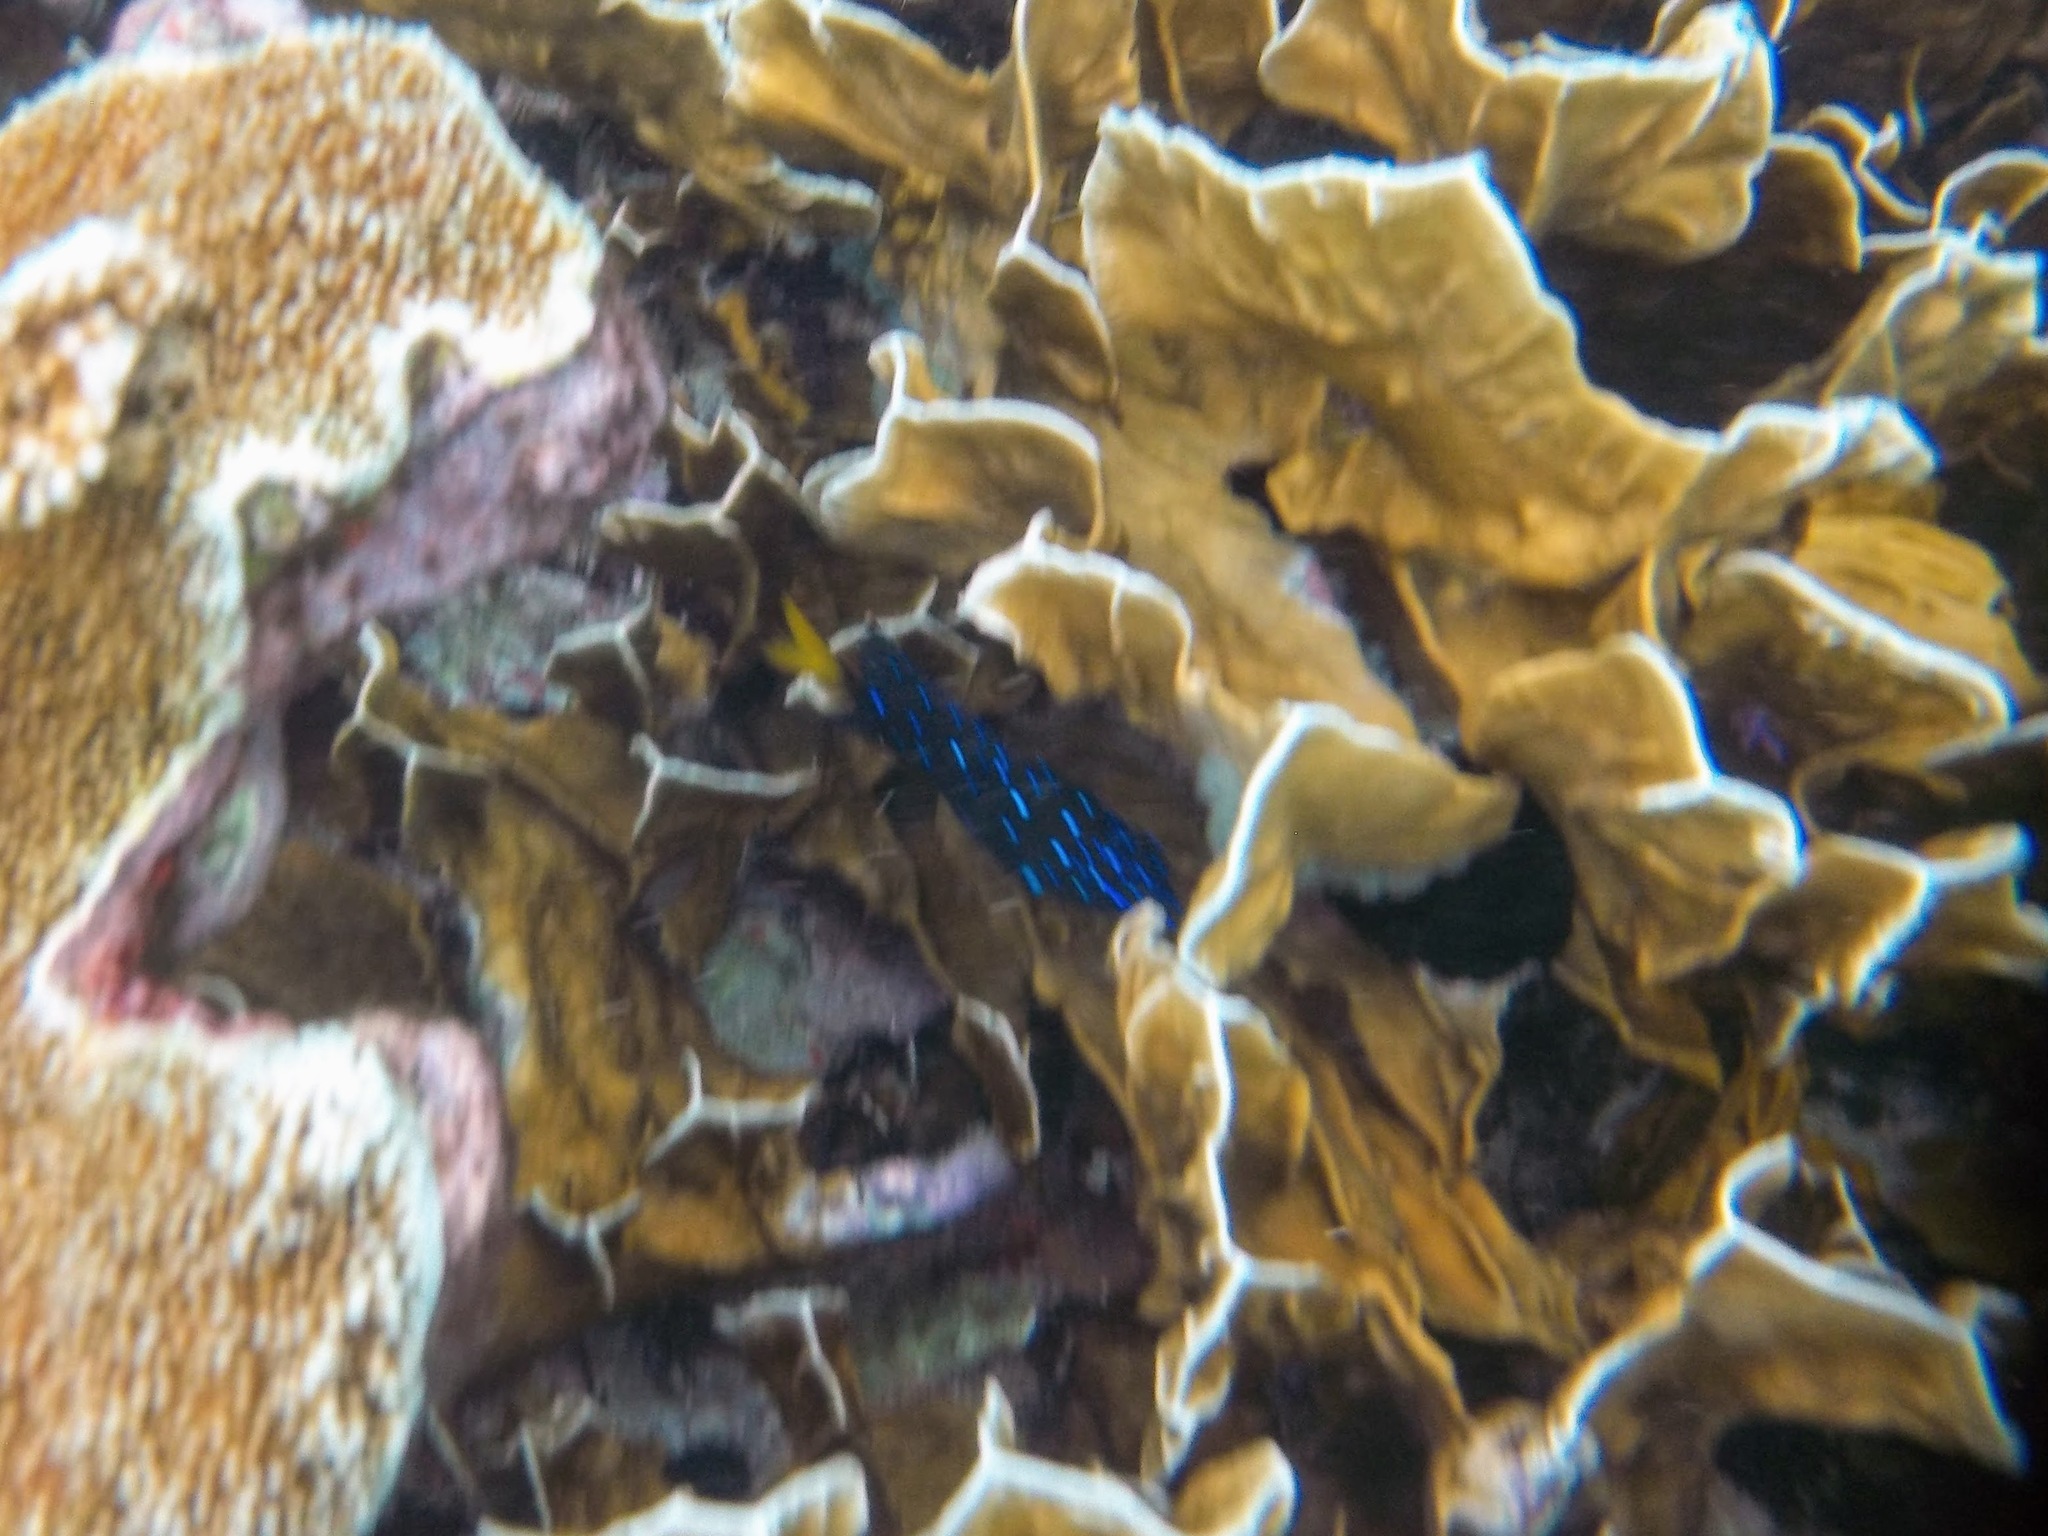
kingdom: Animalia
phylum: Chordata
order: Perciformes
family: Pomacentridae
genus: Microspathodon
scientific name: Microspathodon chrysurus
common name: Yellowtail damselfish
